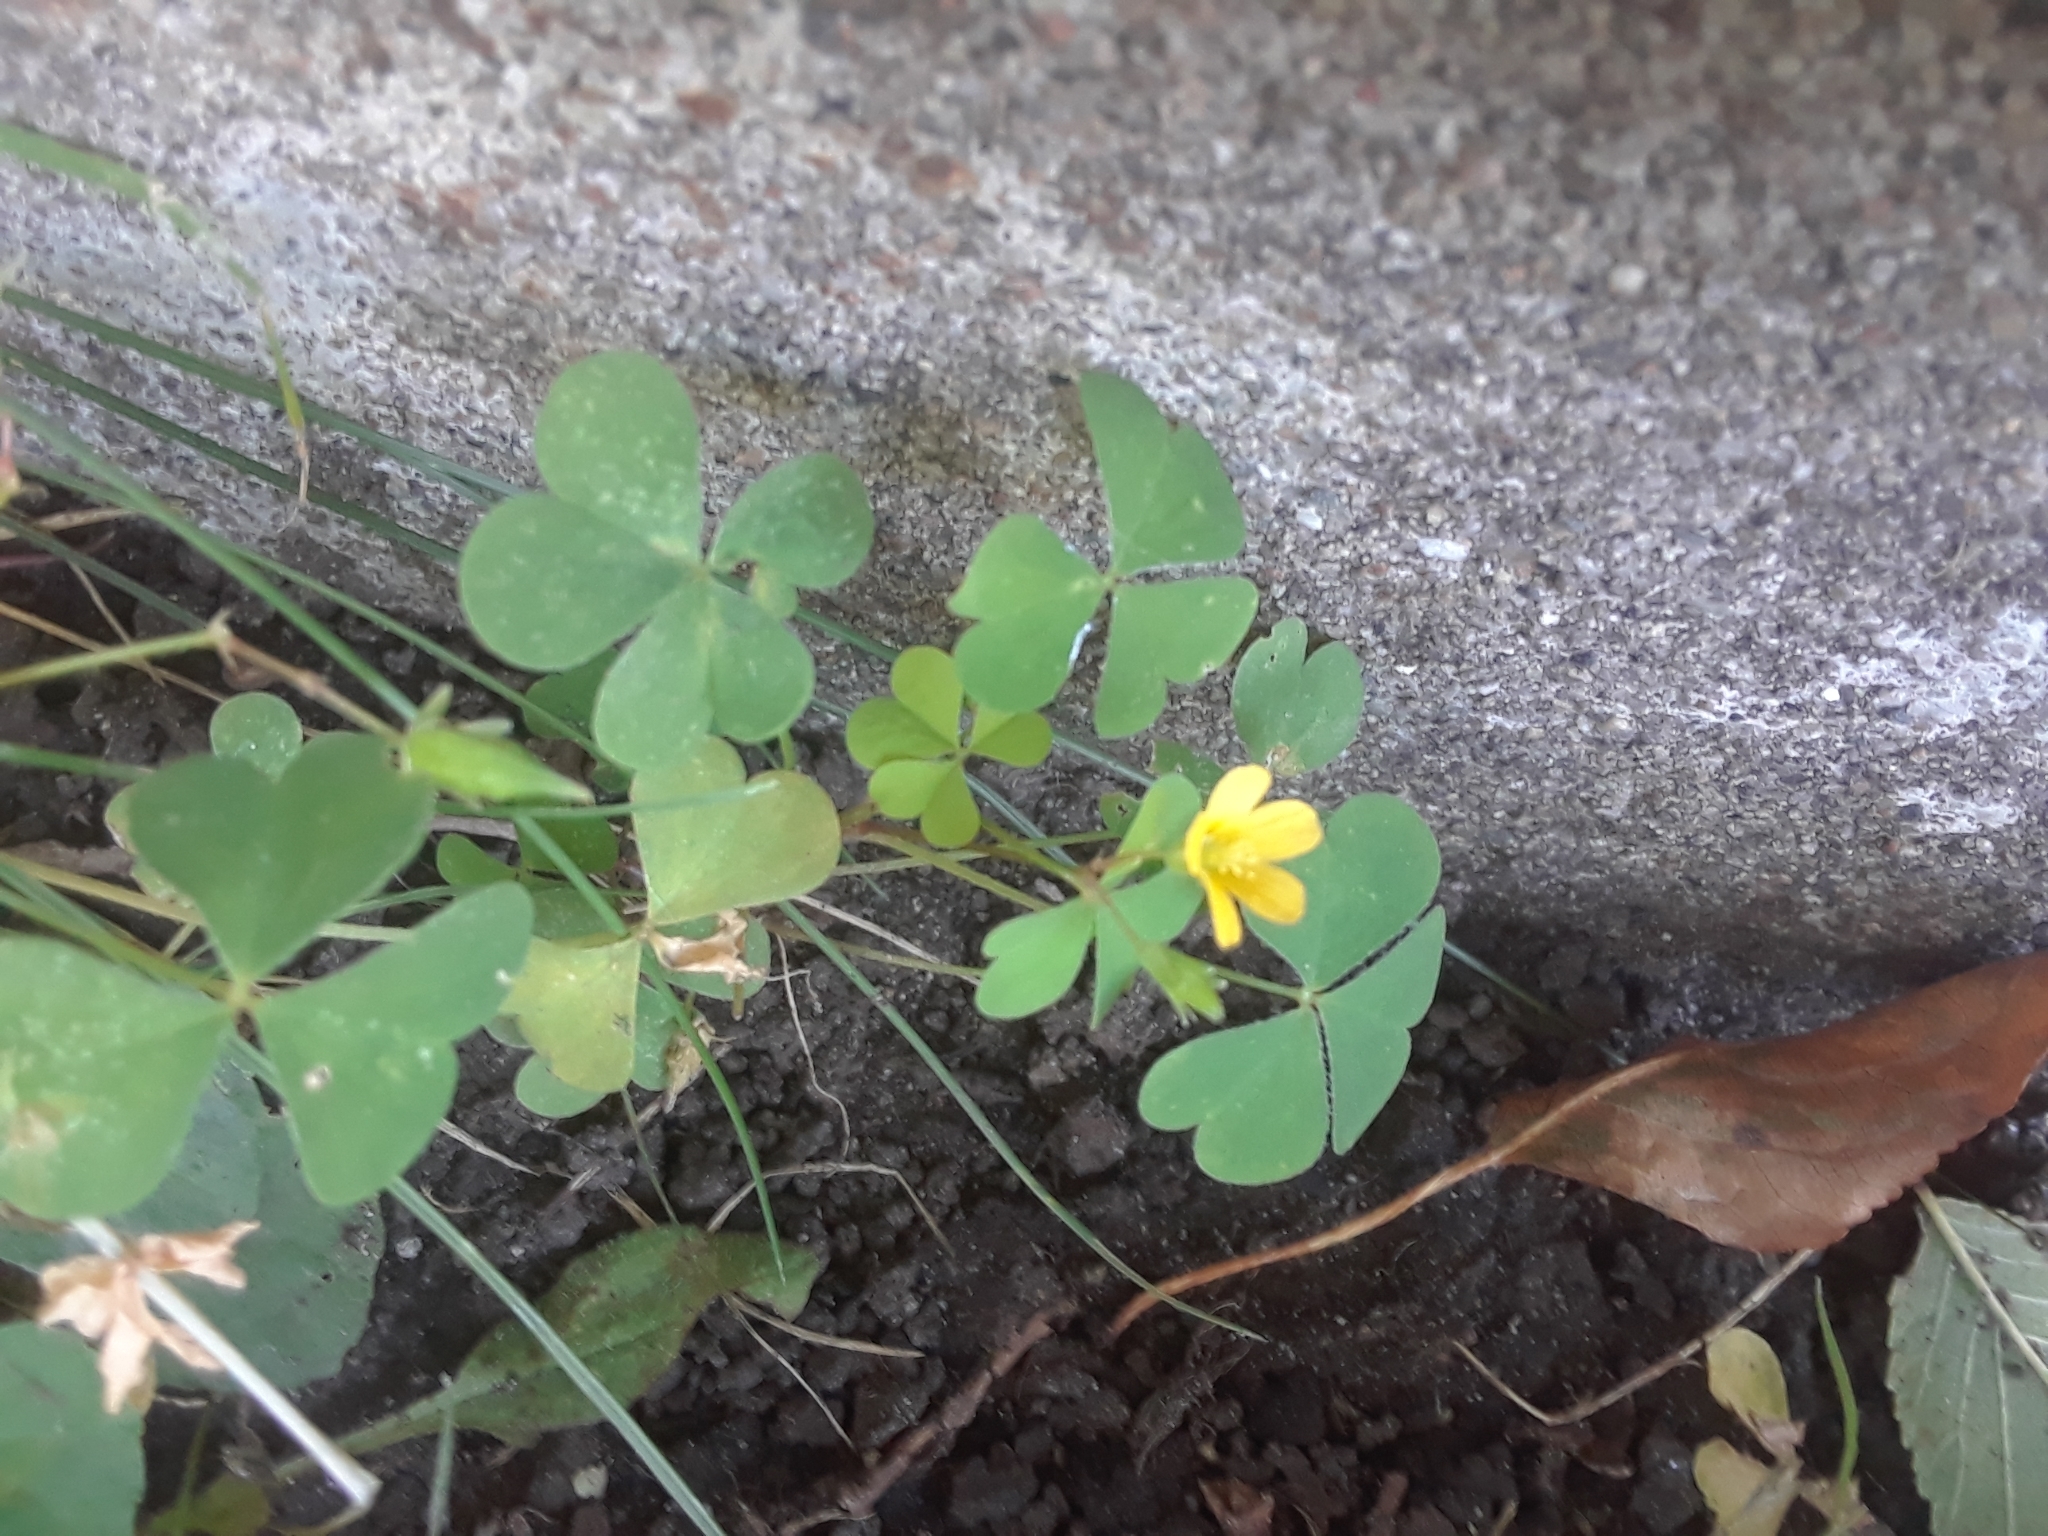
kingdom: Plantae
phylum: Tracheophyta
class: Magnoliopsida
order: Oxalidales
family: Oxalidaceae
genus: Oxalis
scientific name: Oxalis stricta
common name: Upright yellow-sorrel
